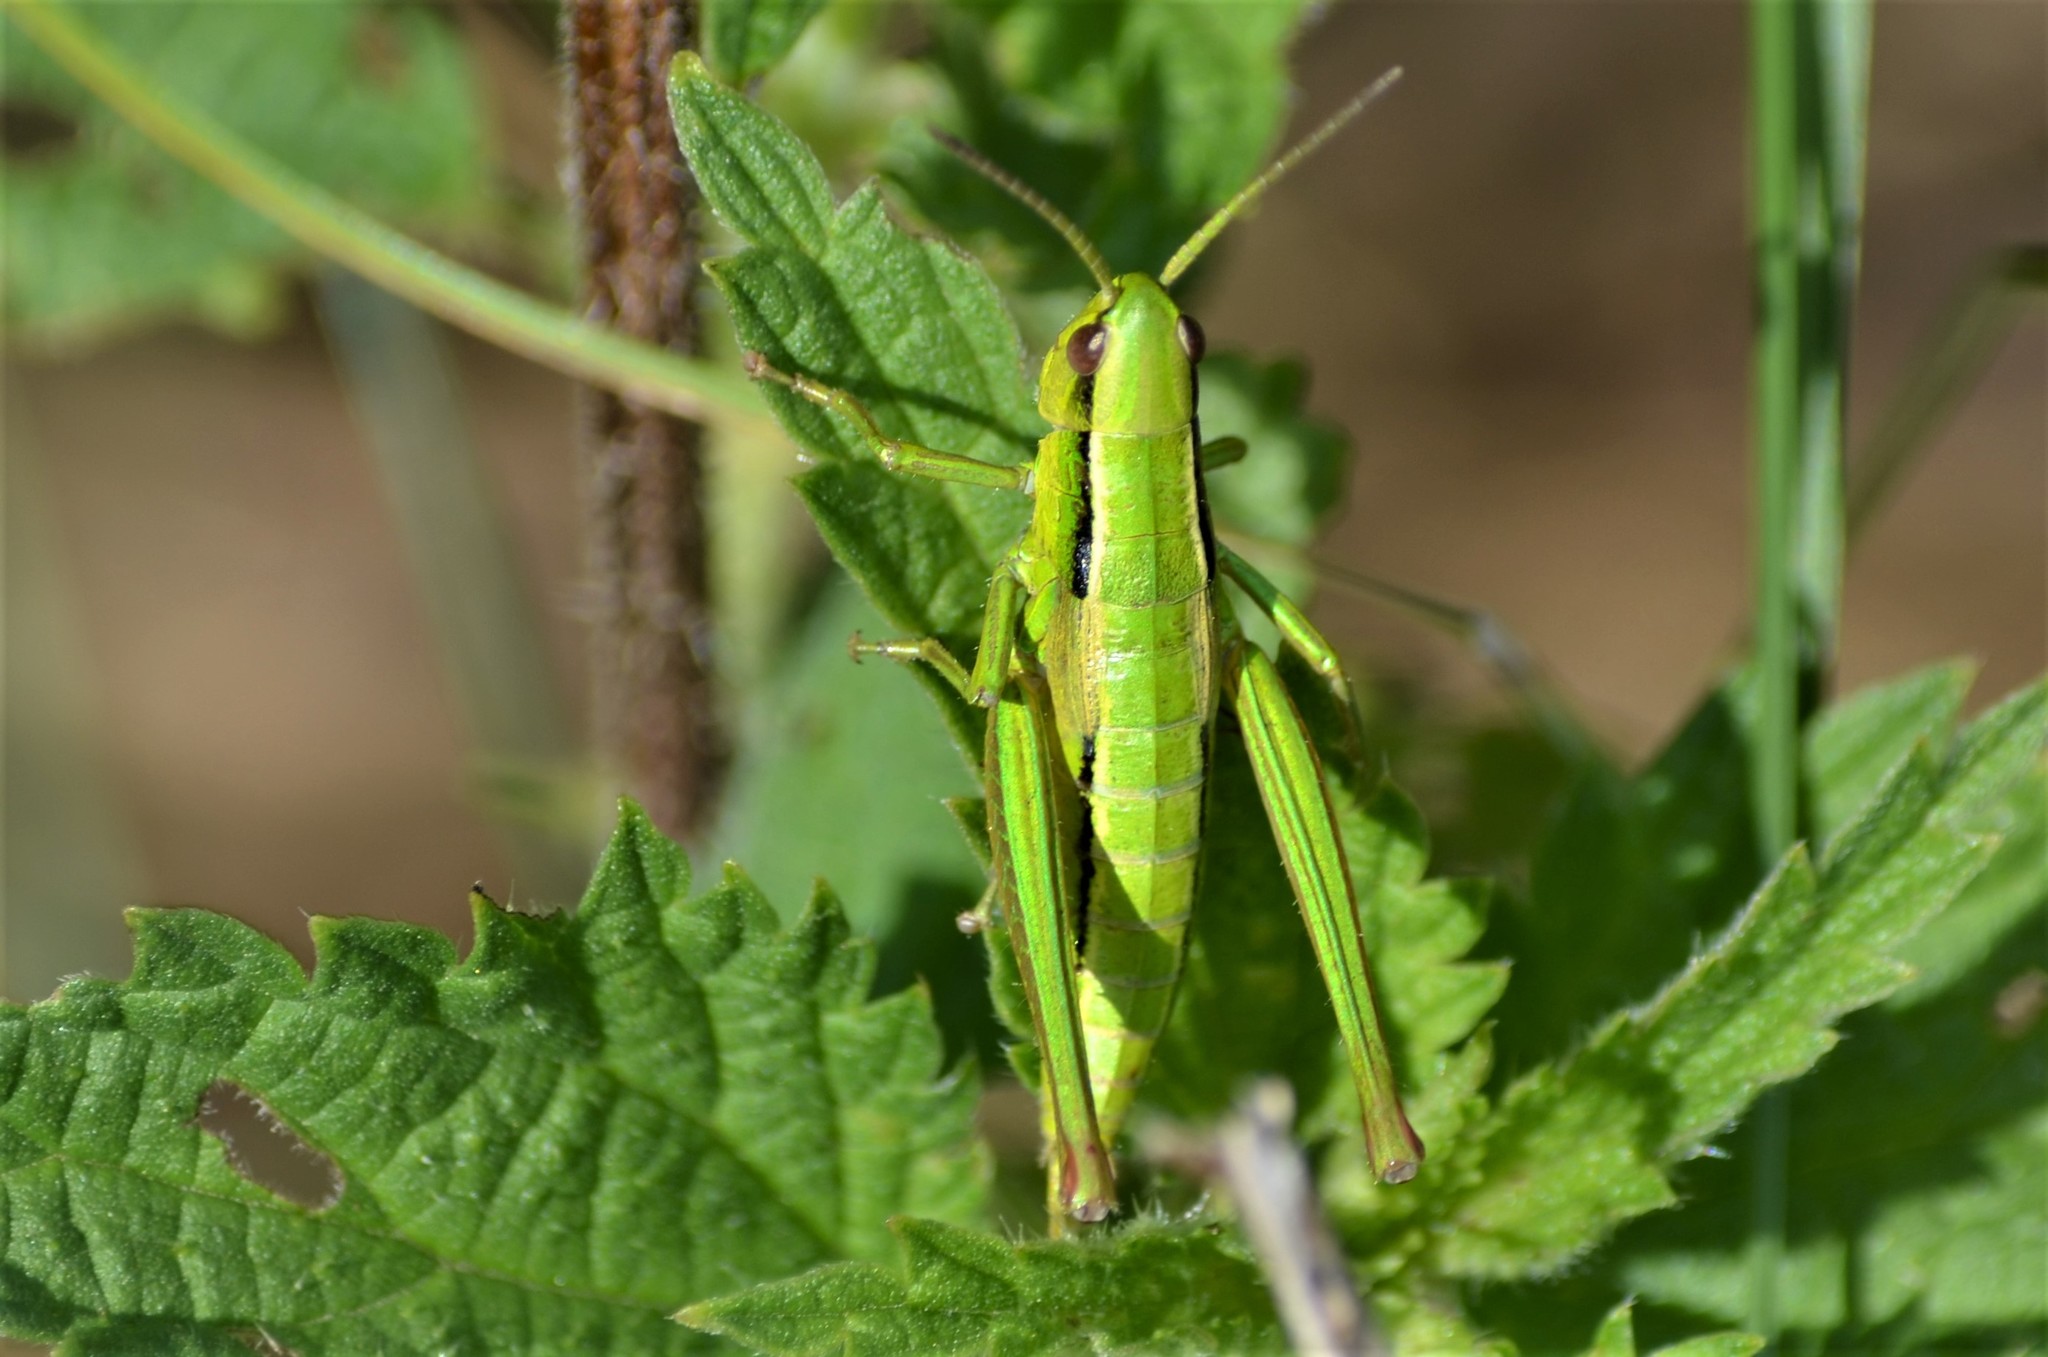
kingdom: Animalia
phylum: Arthropoda
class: Insecta
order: Orthoptera
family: Acrididae
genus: Euthystira
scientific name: Euthystira brachyptera
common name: Small gold grasshopper
